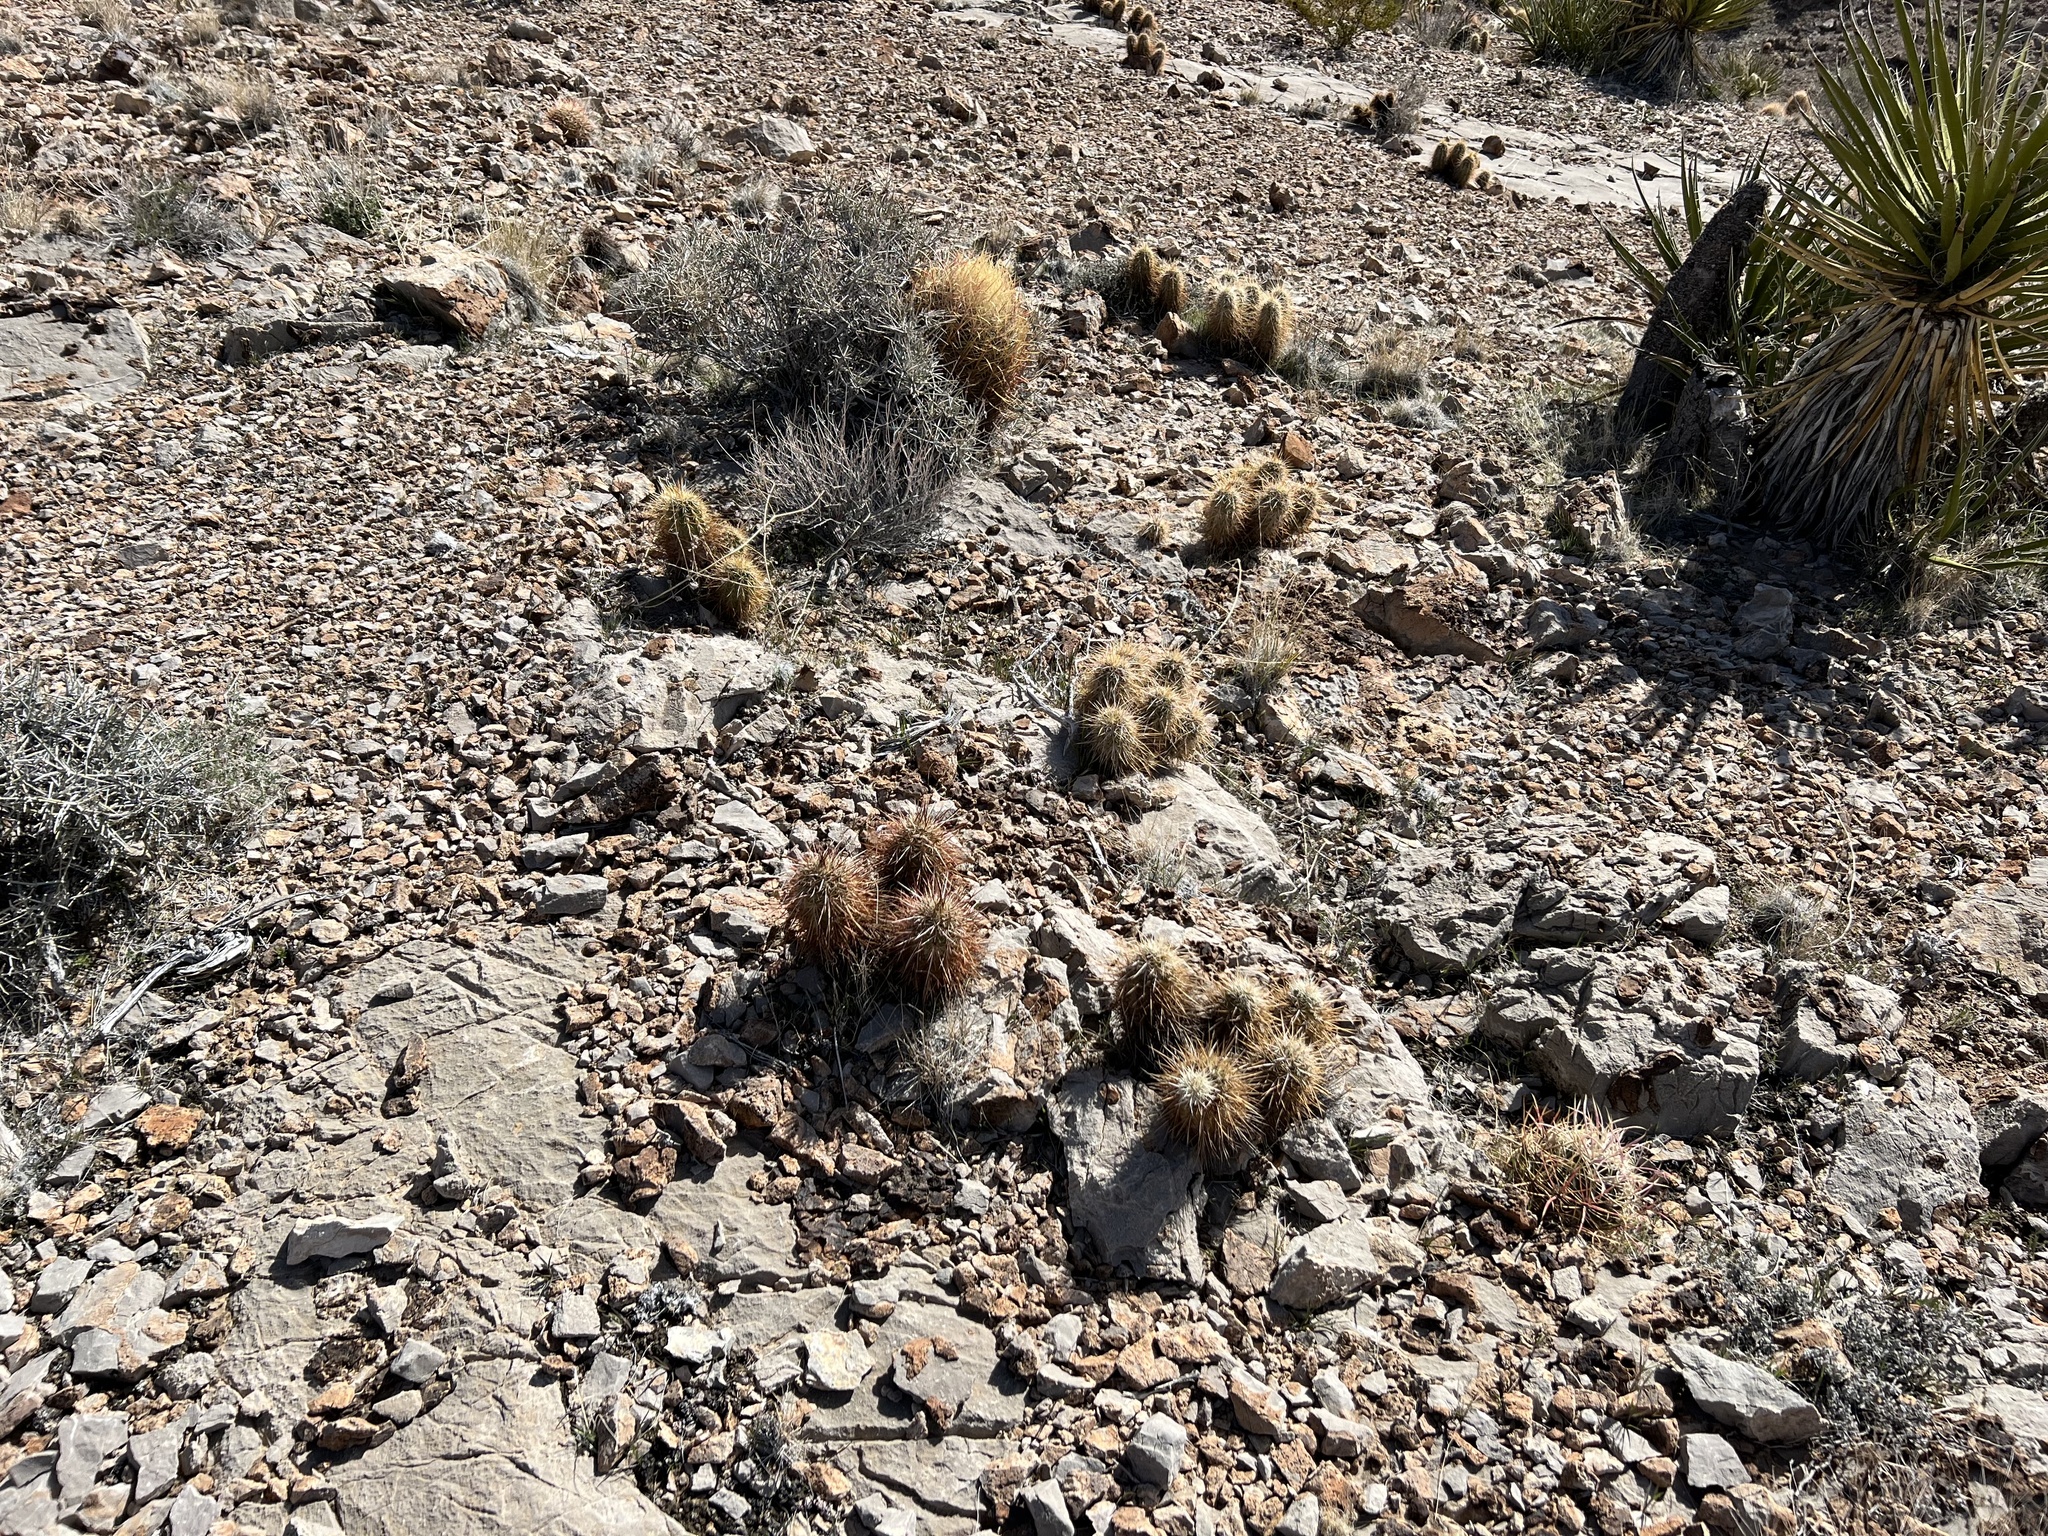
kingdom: Plantae
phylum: Tracheophyta
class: Magnoliopsida
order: Caryophyllales
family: Cactaceae
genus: Echinocereus
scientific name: Echinocereus engelmannii
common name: Engelmann's hedgehog cactus
